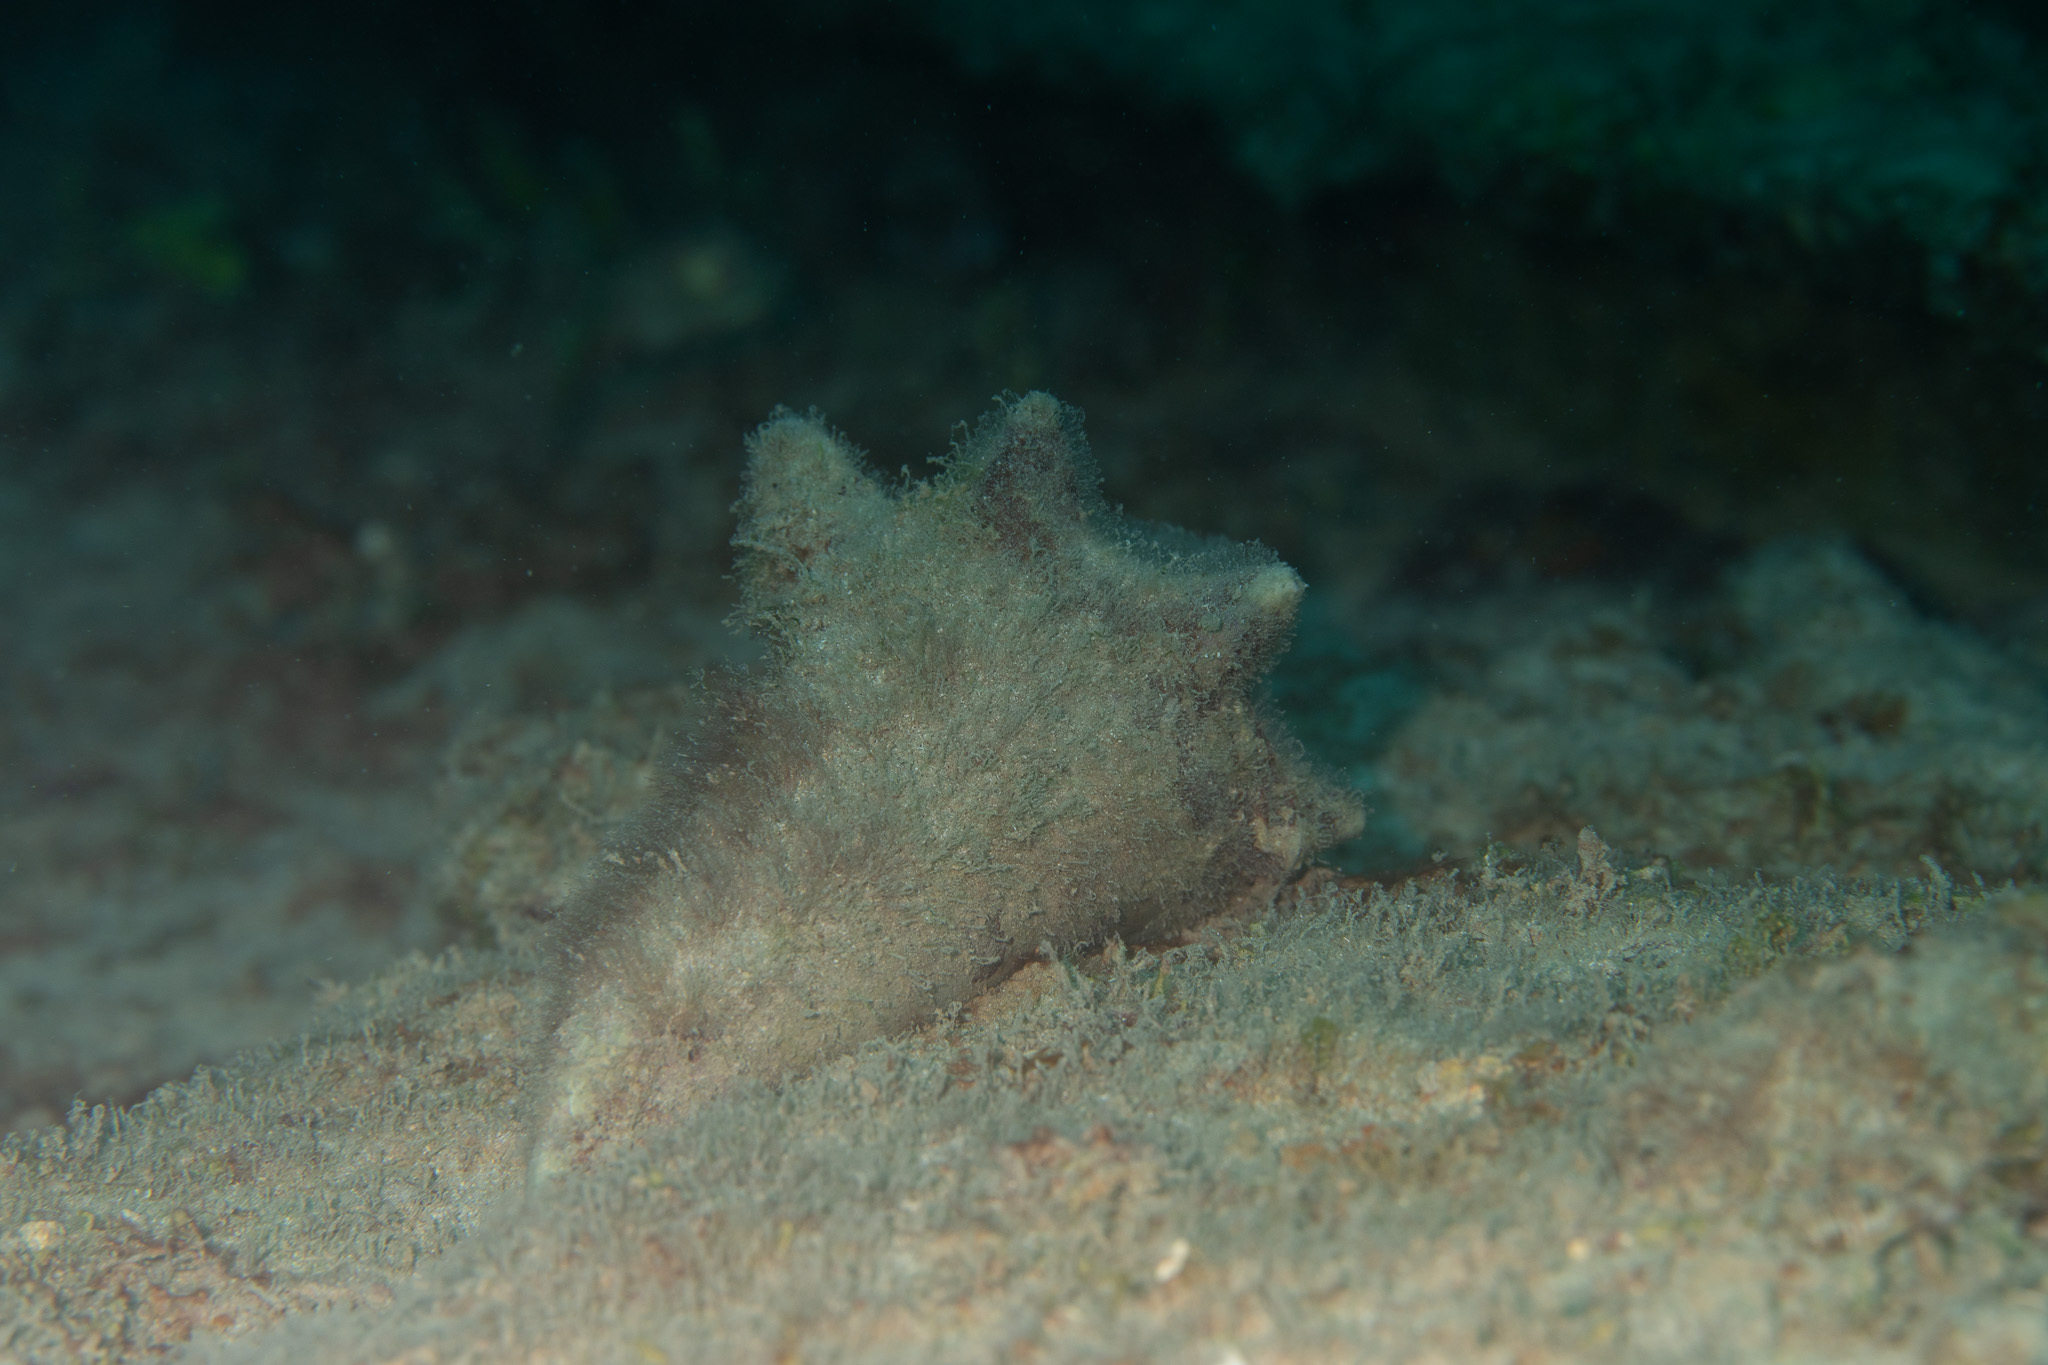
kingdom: Animalia
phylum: Mollusca
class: Gastropoda
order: Littorinimorpha
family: Strombidae
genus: Aliger
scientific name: Aliger gigas
